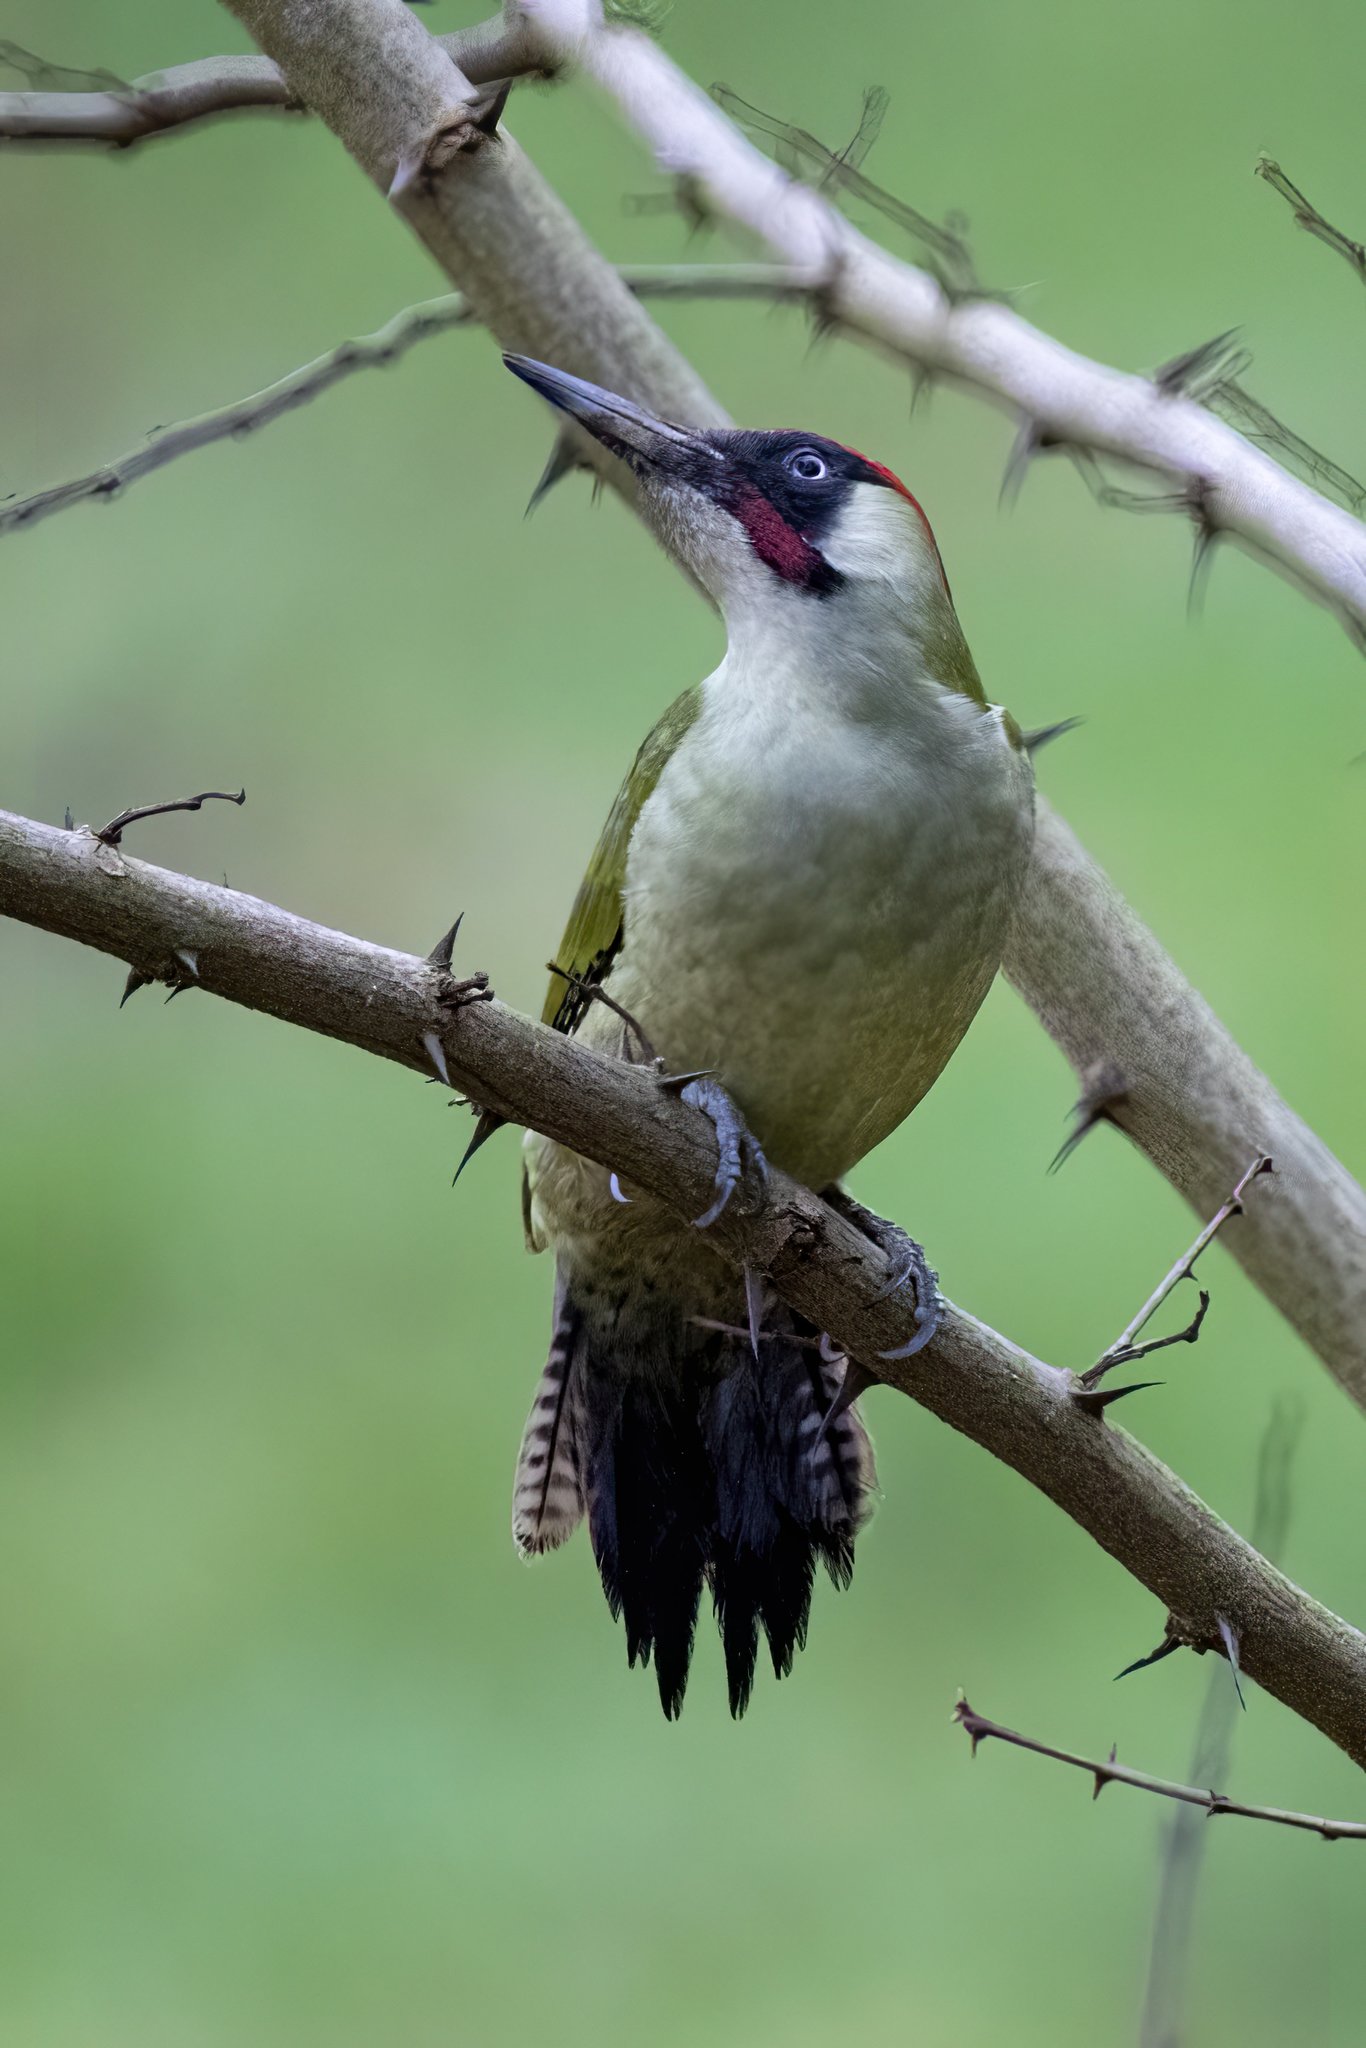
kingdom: Animalia
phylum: Chordata
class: Aves
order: Piciformes
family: Picidae
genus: Picus
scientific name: Picus viridis
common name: European green woodpecker
